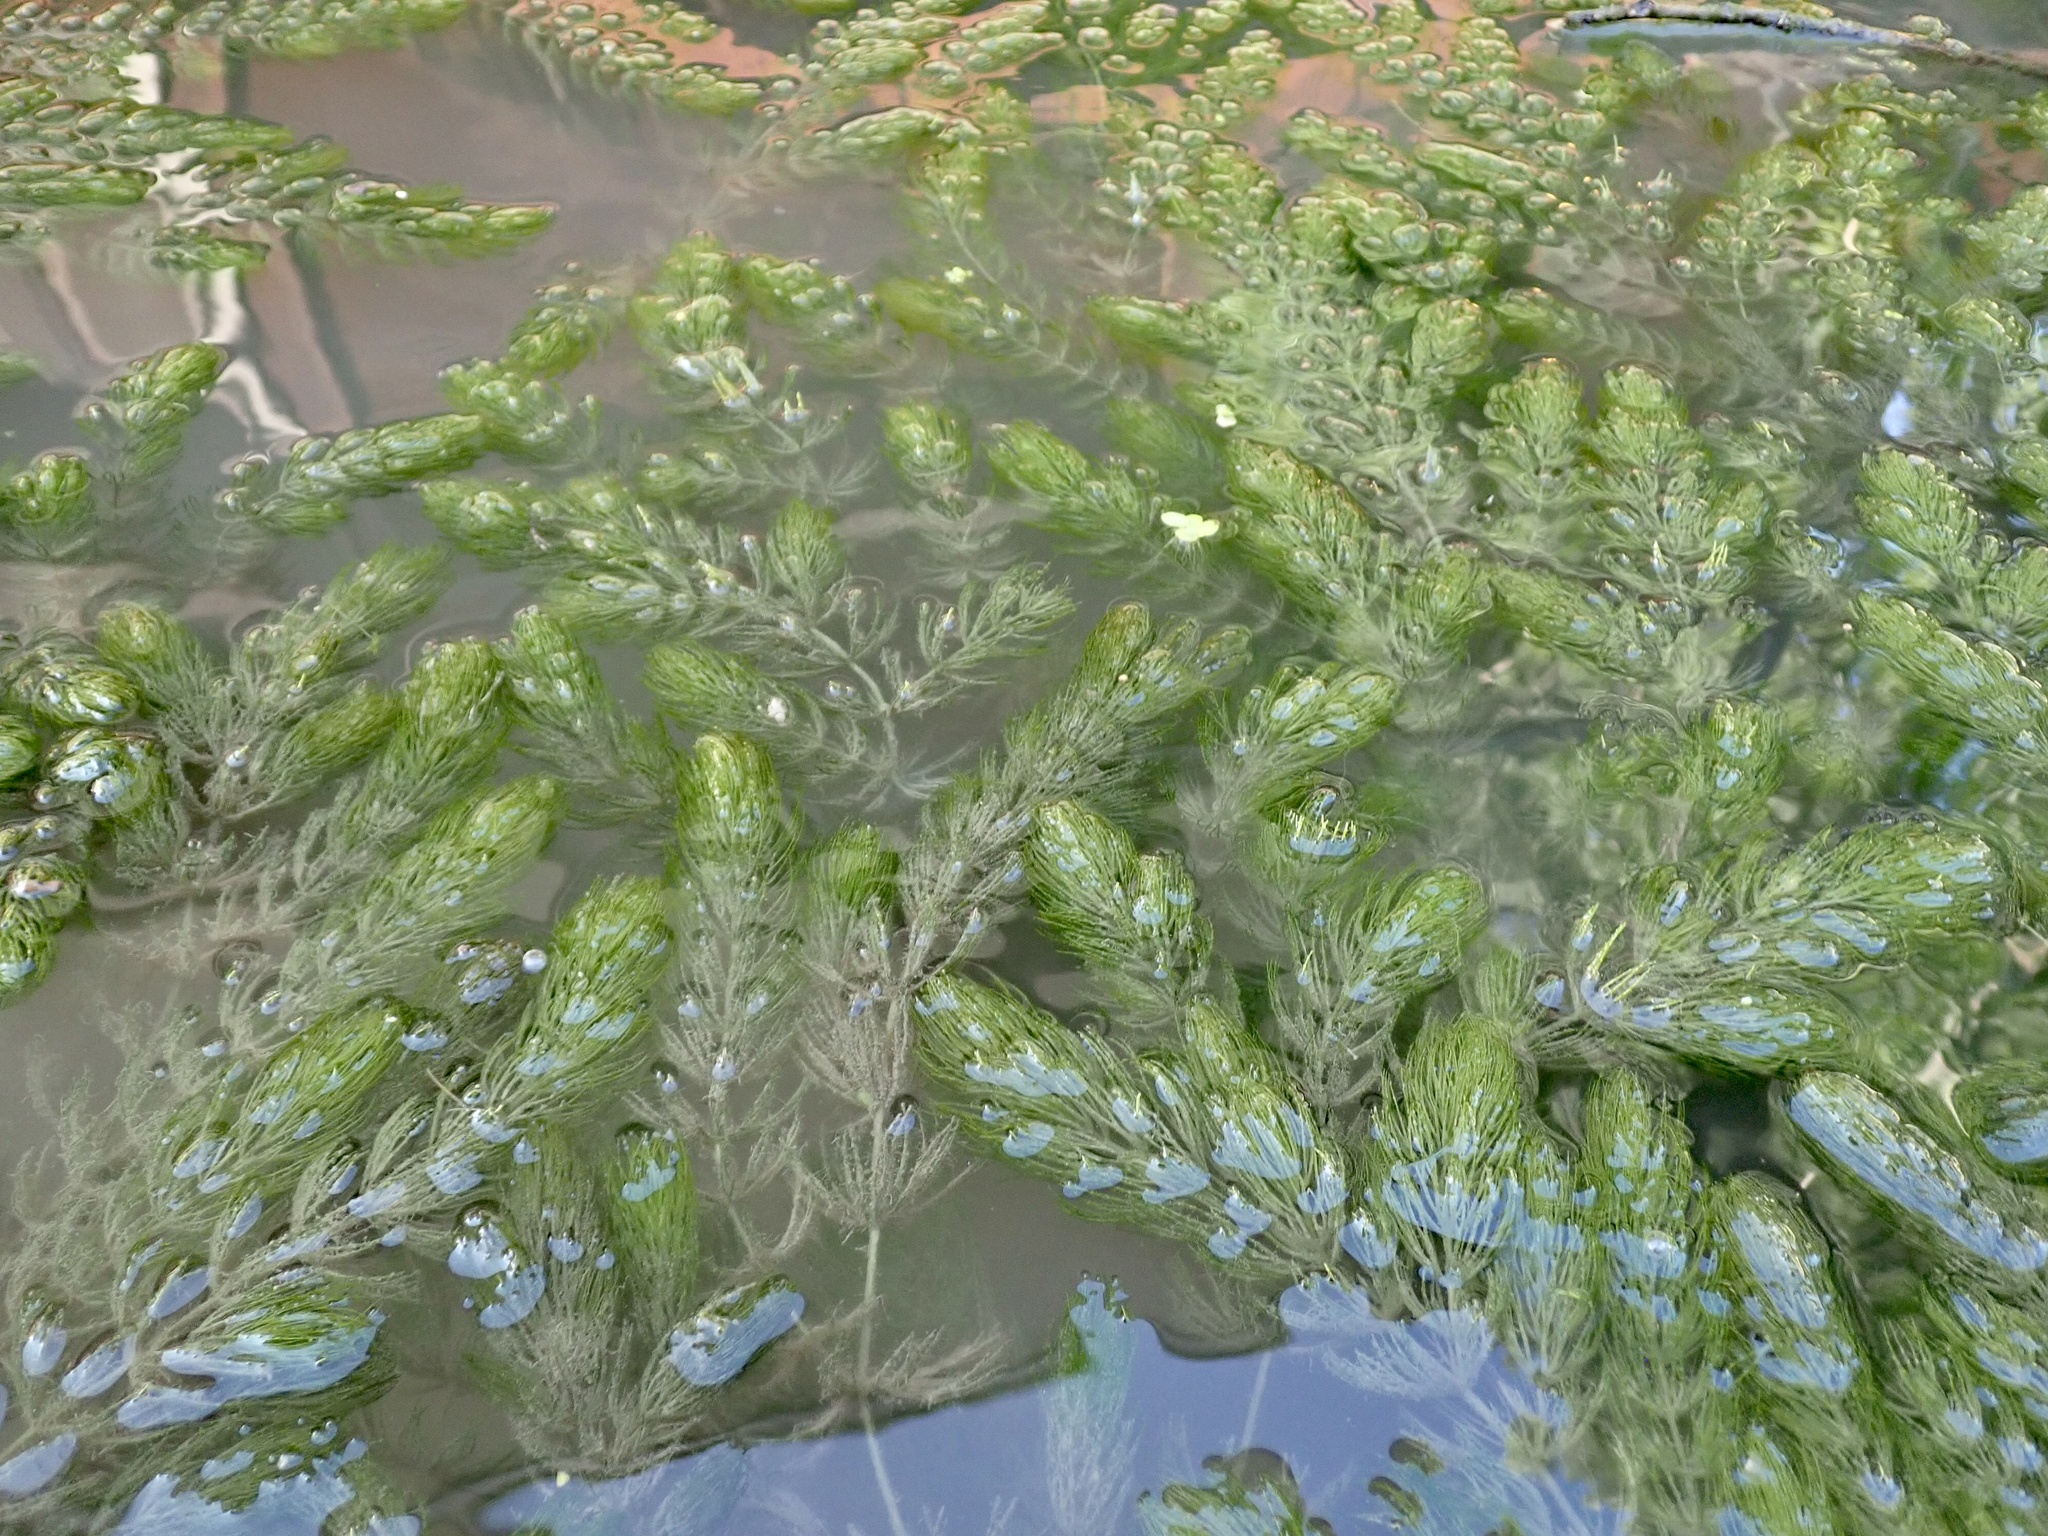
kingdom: Plantae
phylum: Tracheophyta
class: Magnoliopsida
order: Ceratophyllales
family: Ceratophyllaceae
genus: Ceratophyllum
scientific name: Ceratophyllum demersum
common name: Rigid hornwort
